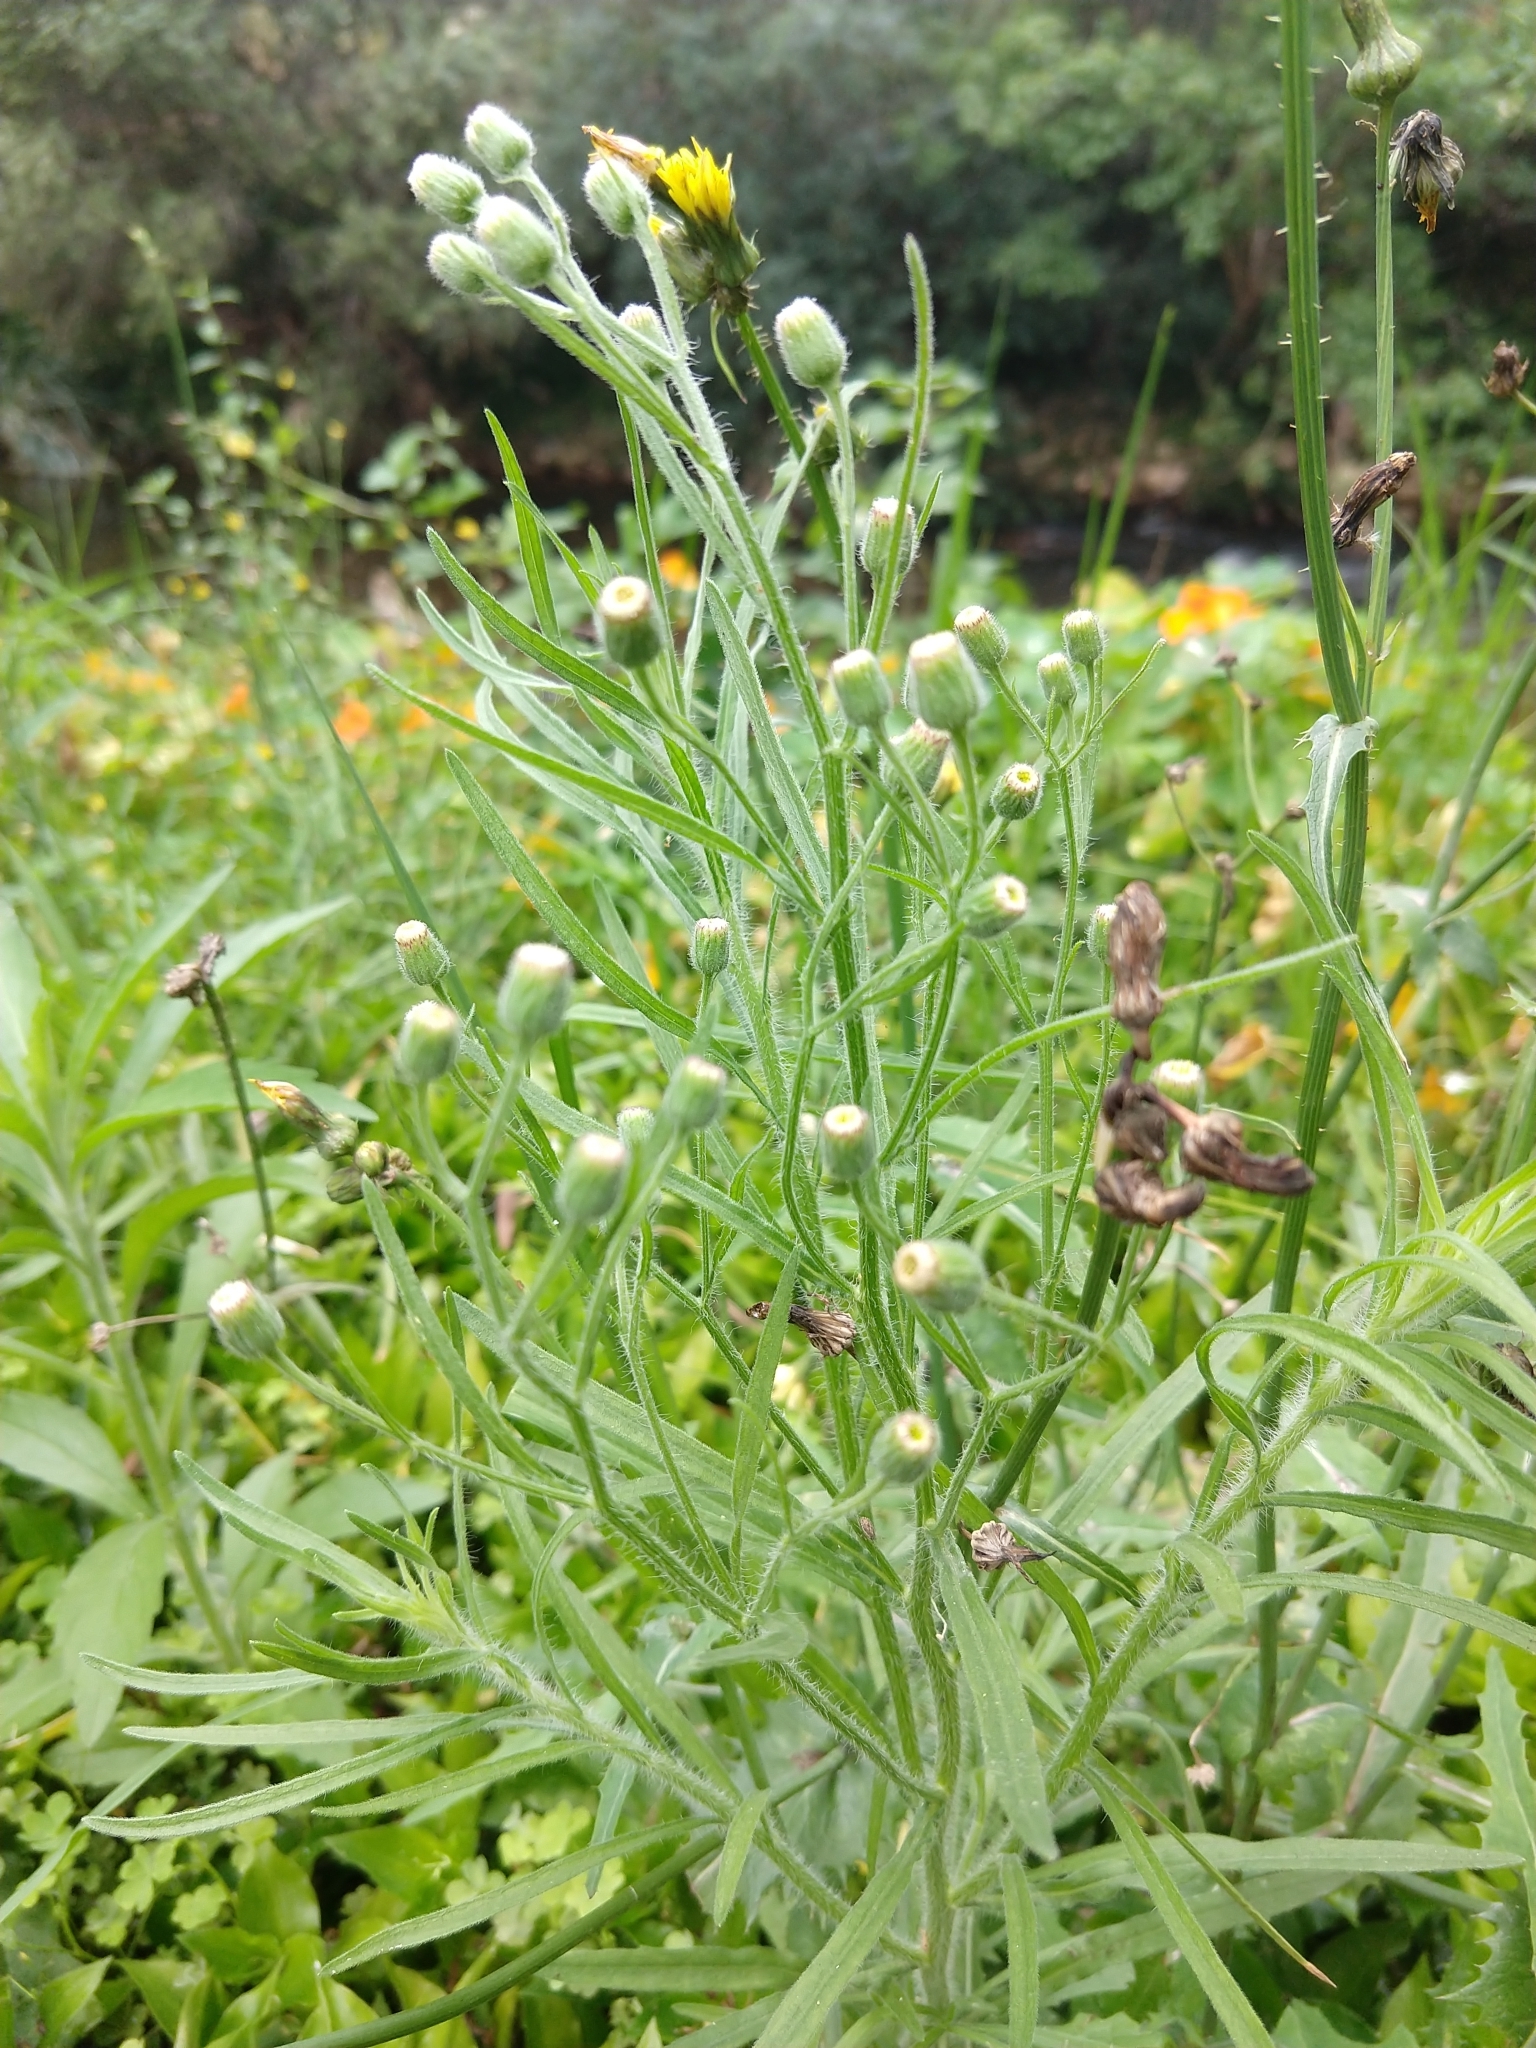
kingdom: Plantae
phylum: Tracheophyta
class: Magnoliopsida
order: Asterales
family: Asteraceae
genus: Erigeron
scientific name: Erigeron bonariensis
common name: Argentine fleabane
